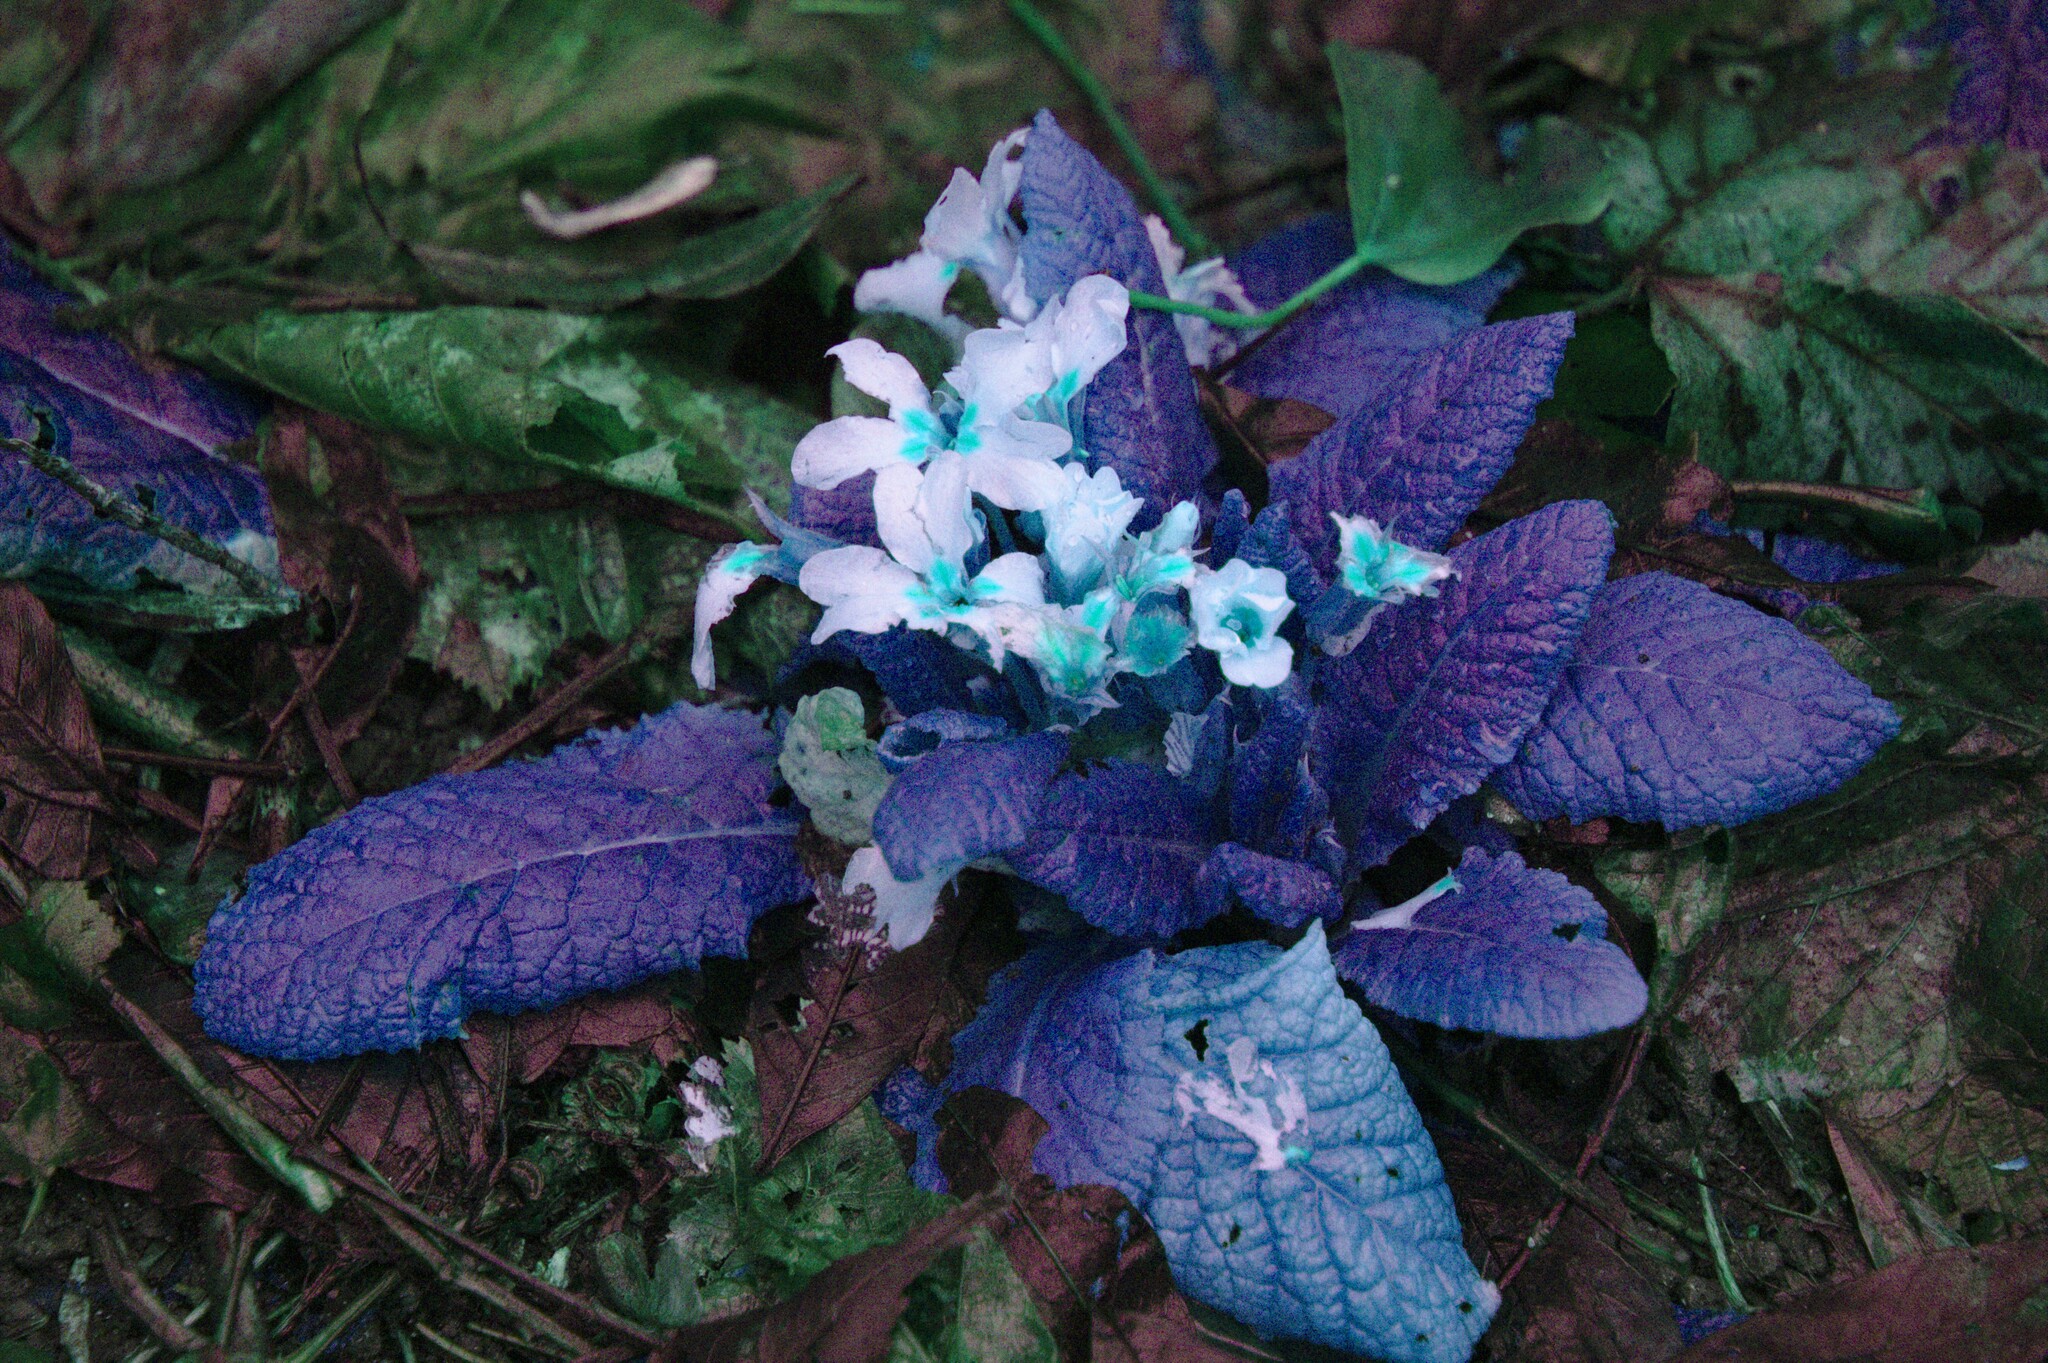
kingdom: Plantae
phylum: Tracheophyta
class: Magnoliopsida
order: Ericales
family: Primulaceae
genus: Primula
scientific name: Primula vulgaris
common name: Primrose
